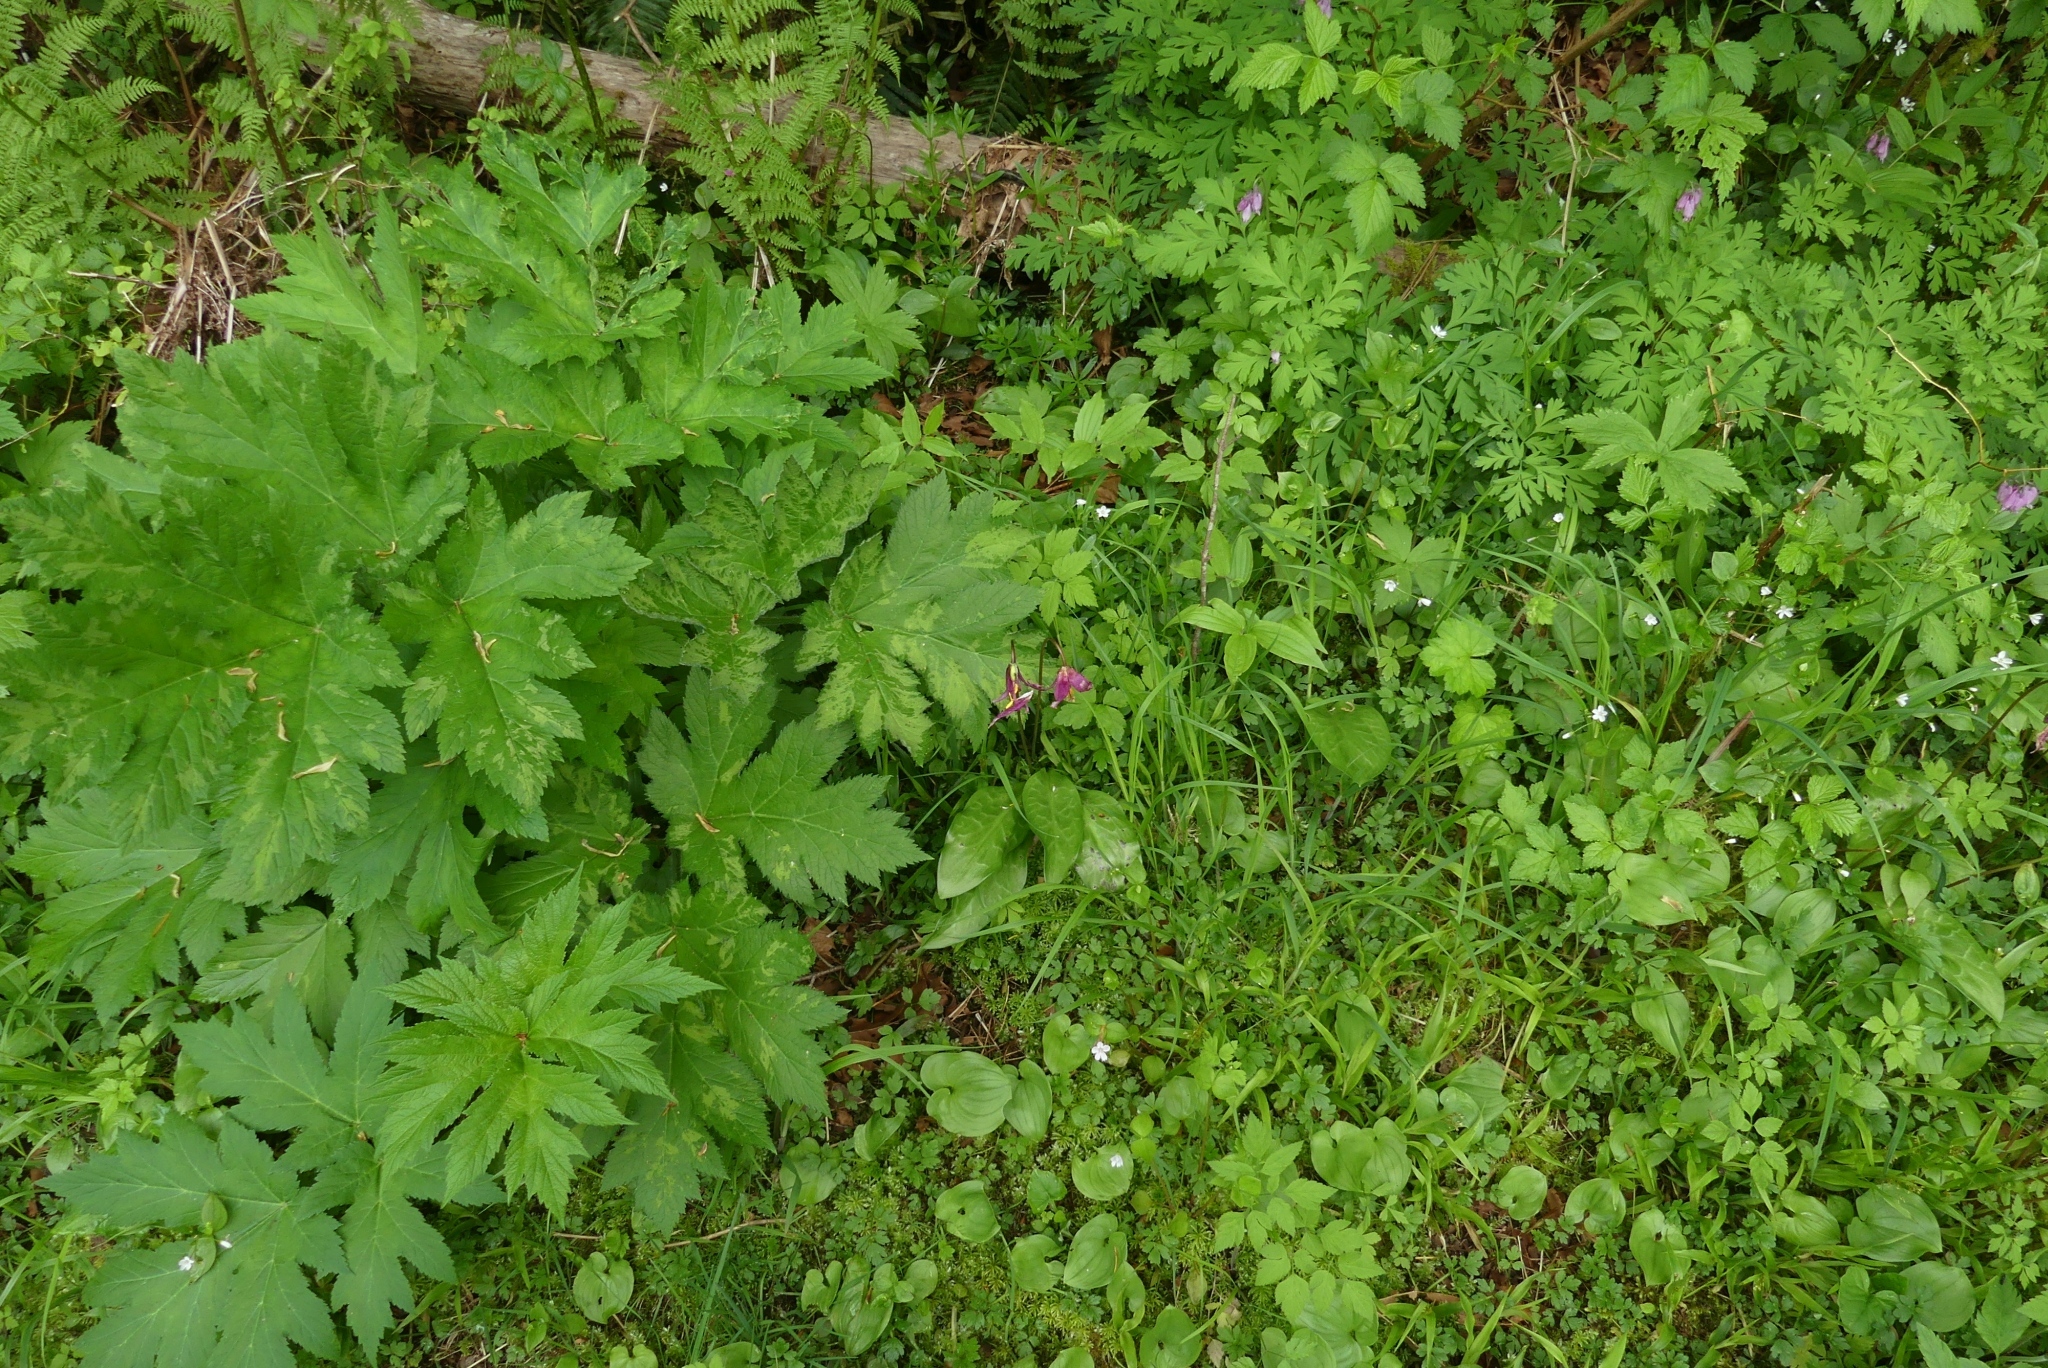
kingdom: Plantae
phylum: Tracheophyta
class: Liliopsida
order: Liliales
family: Liliaceae
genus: Erythronium
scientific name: Erythronium revolutum
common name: Pink fawn-lily
